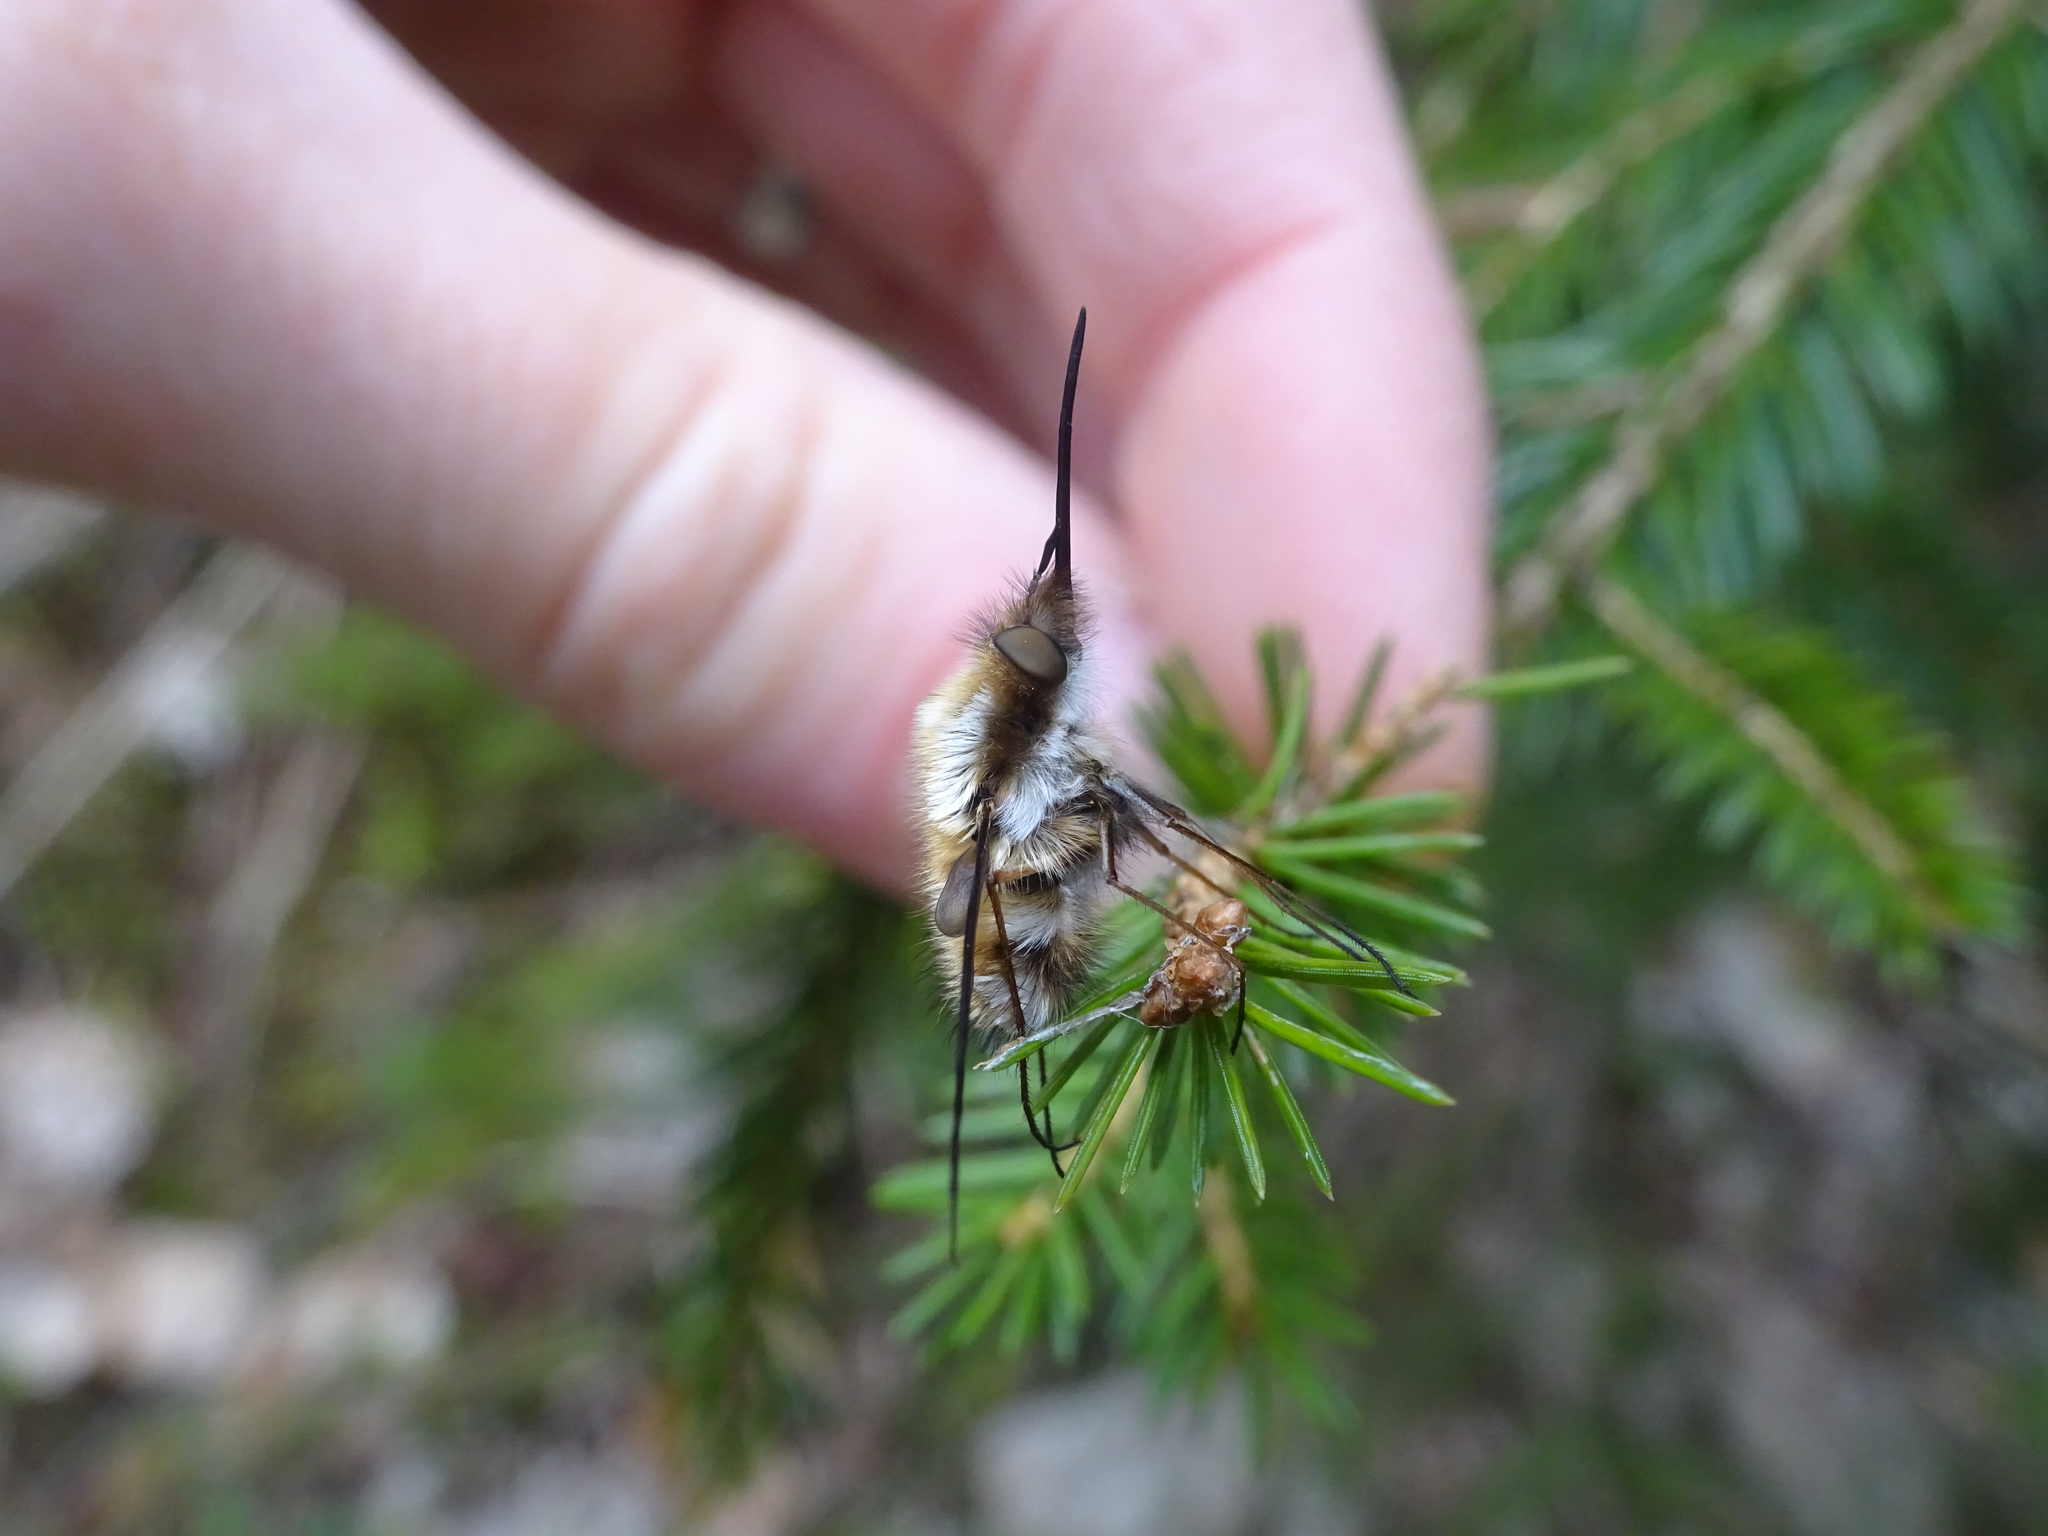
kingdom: Animalia
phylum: Arthropoda
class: Insecta
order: Diptera
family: Bombyliidae
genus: Bombylius
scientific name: Bombylius major
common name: Bee fly
